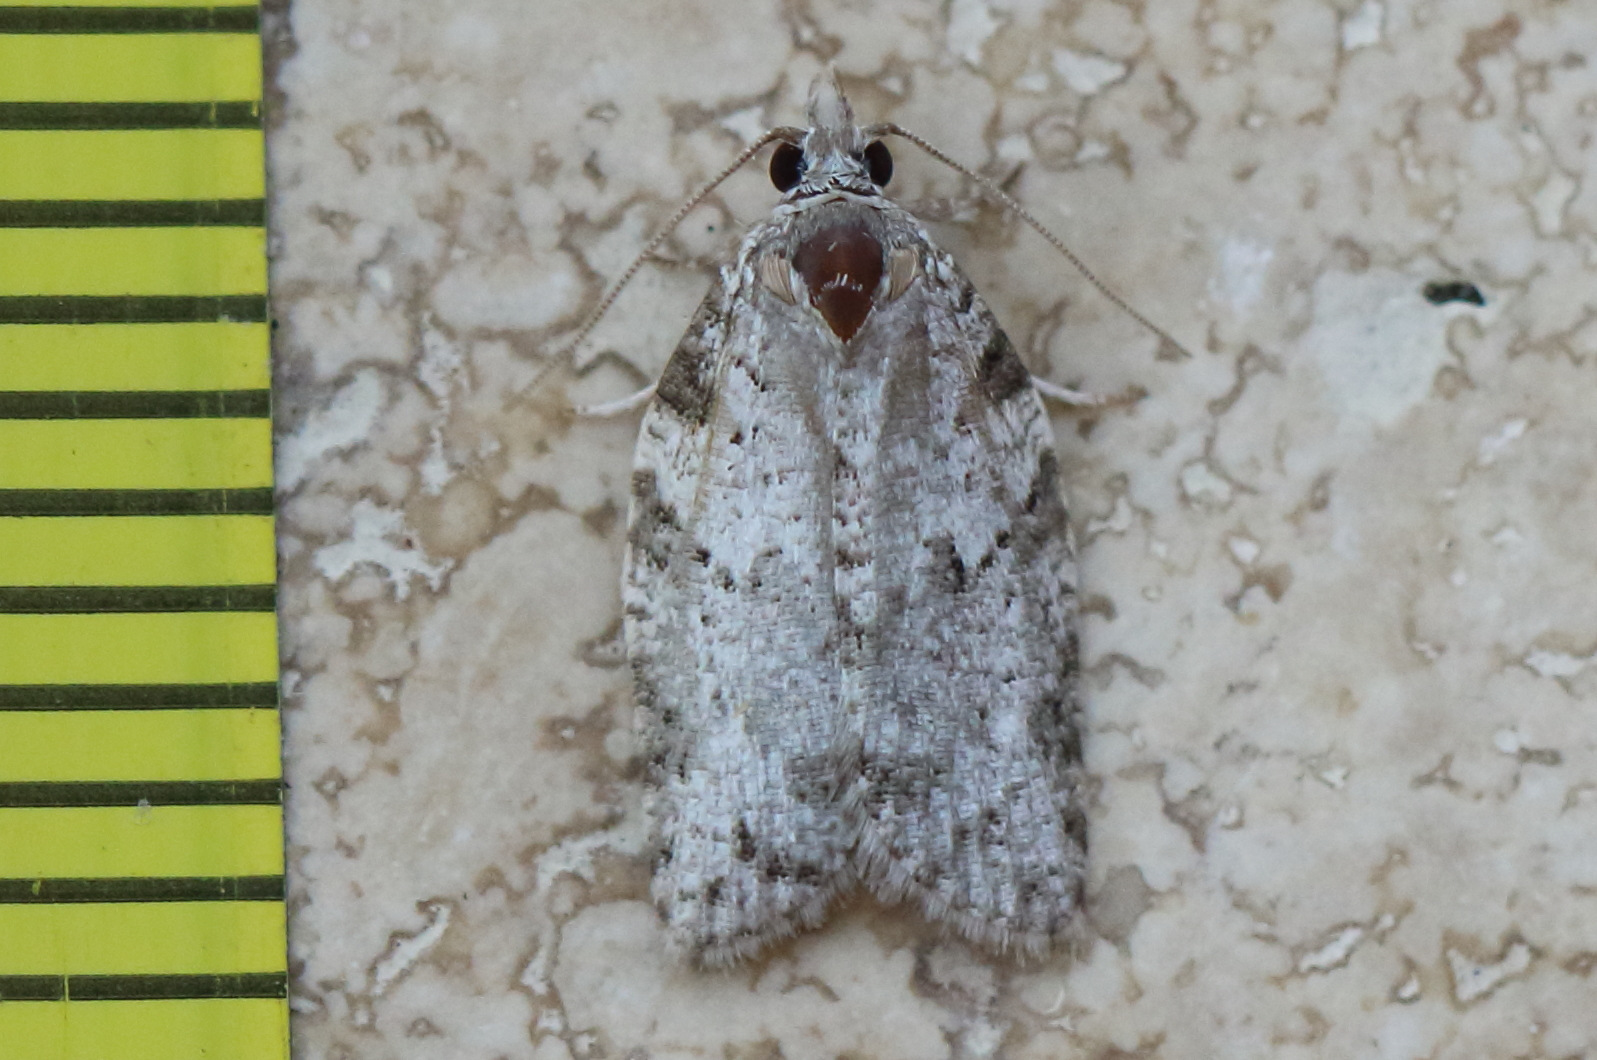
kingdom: Animalia
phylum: Arthropoda
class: Insecta
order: Lepidoptera
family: Tortricidae
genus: Isotenes
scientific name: Isotenes miserana
